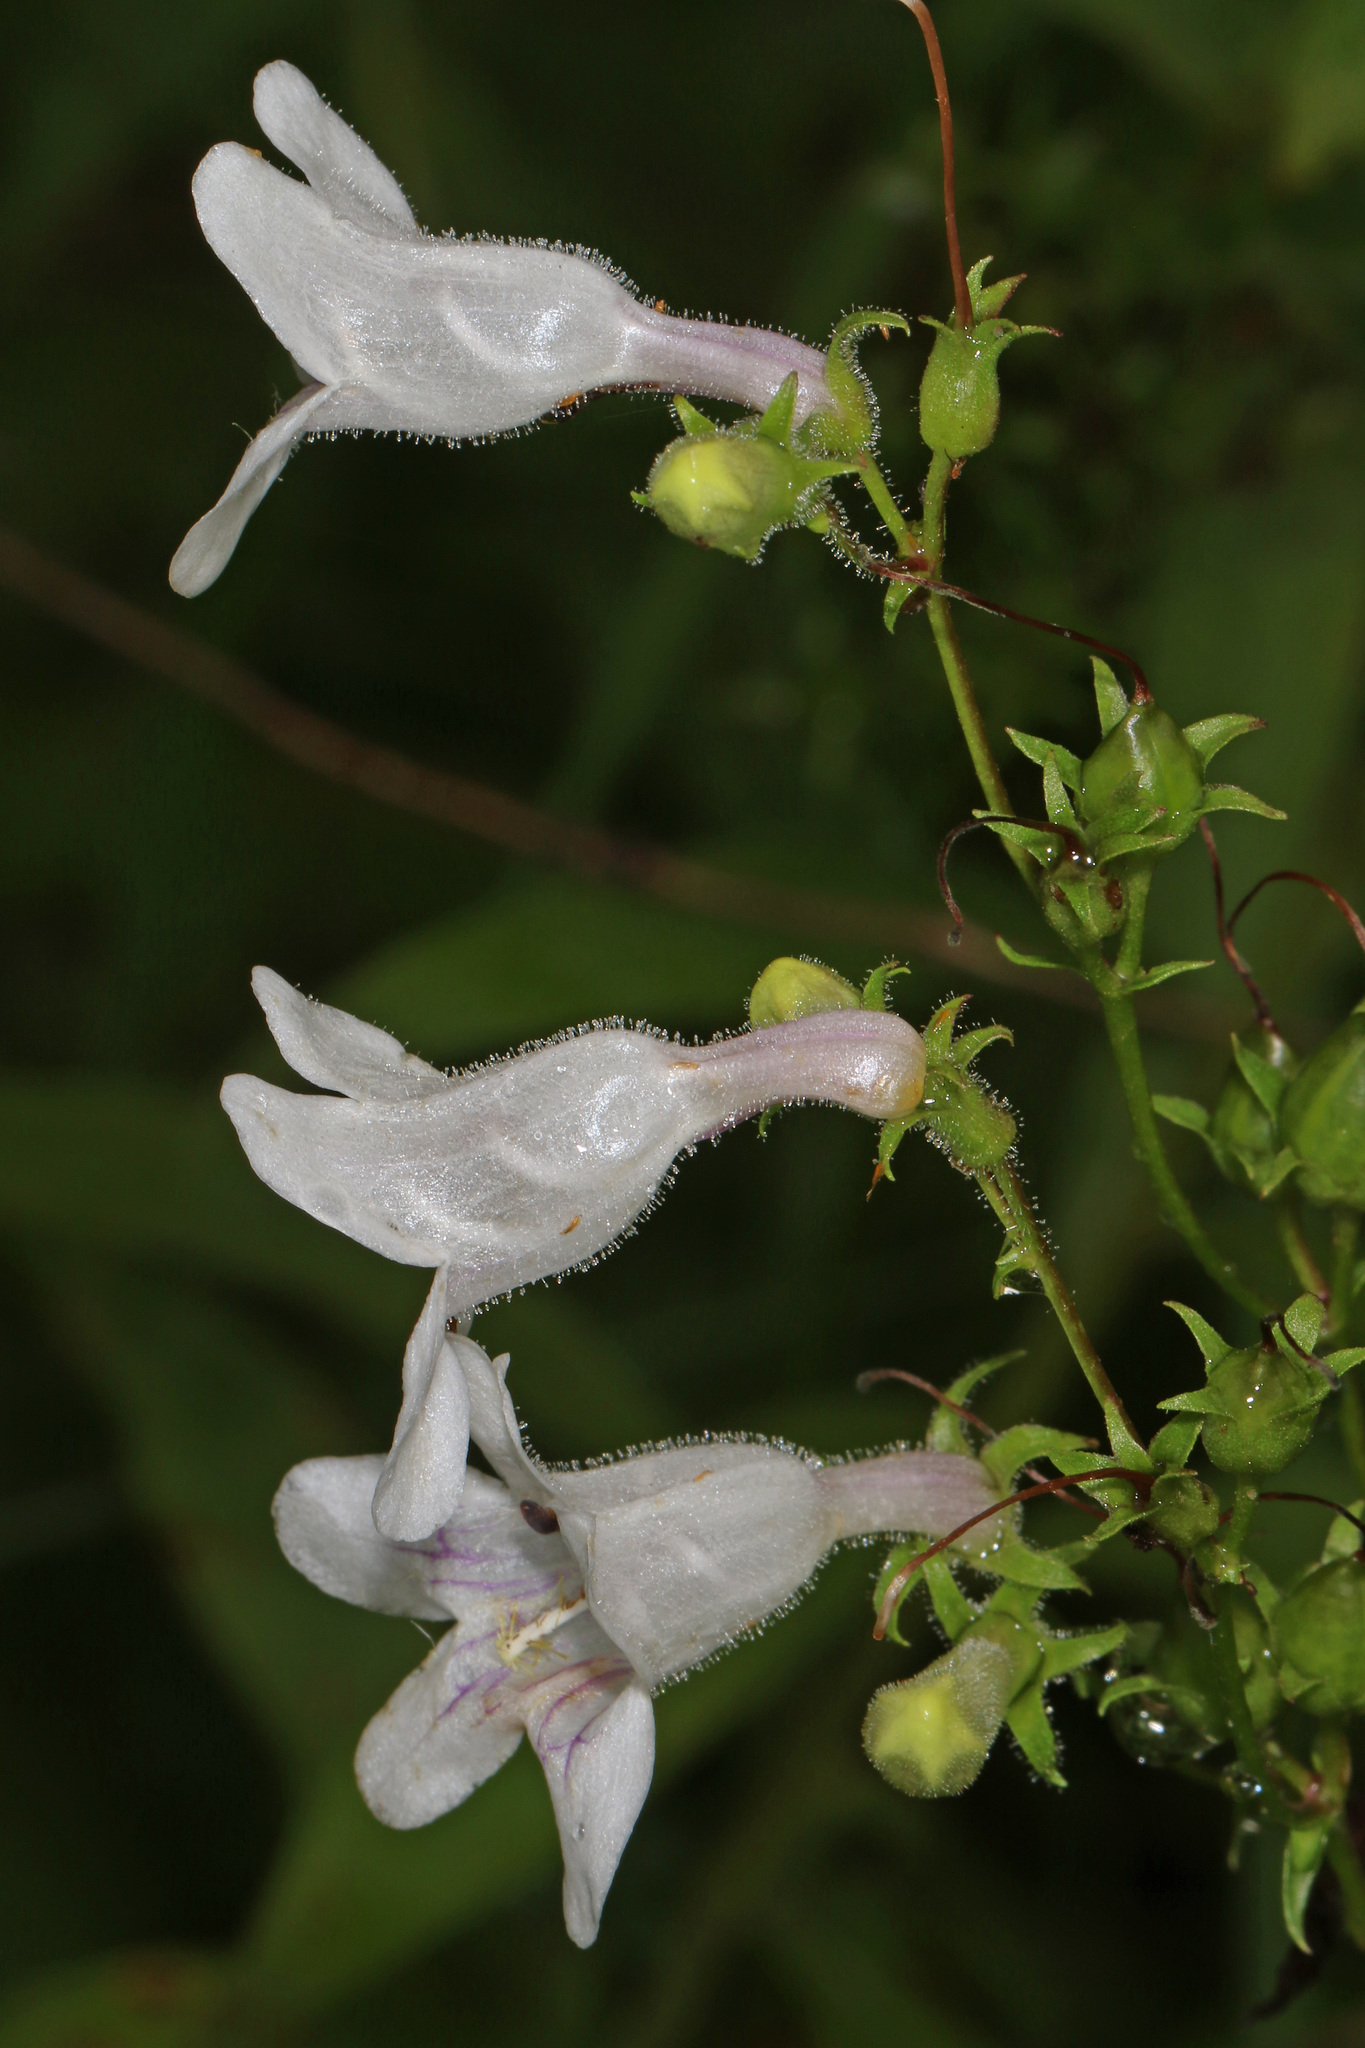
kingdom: Plantae
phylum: Tracheophyta
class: Magnoliopsida
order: Lamiales
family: Plantaginaceae
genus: Penstemon
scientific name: Penstemon digitalis
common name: Foxglove beardtongue
